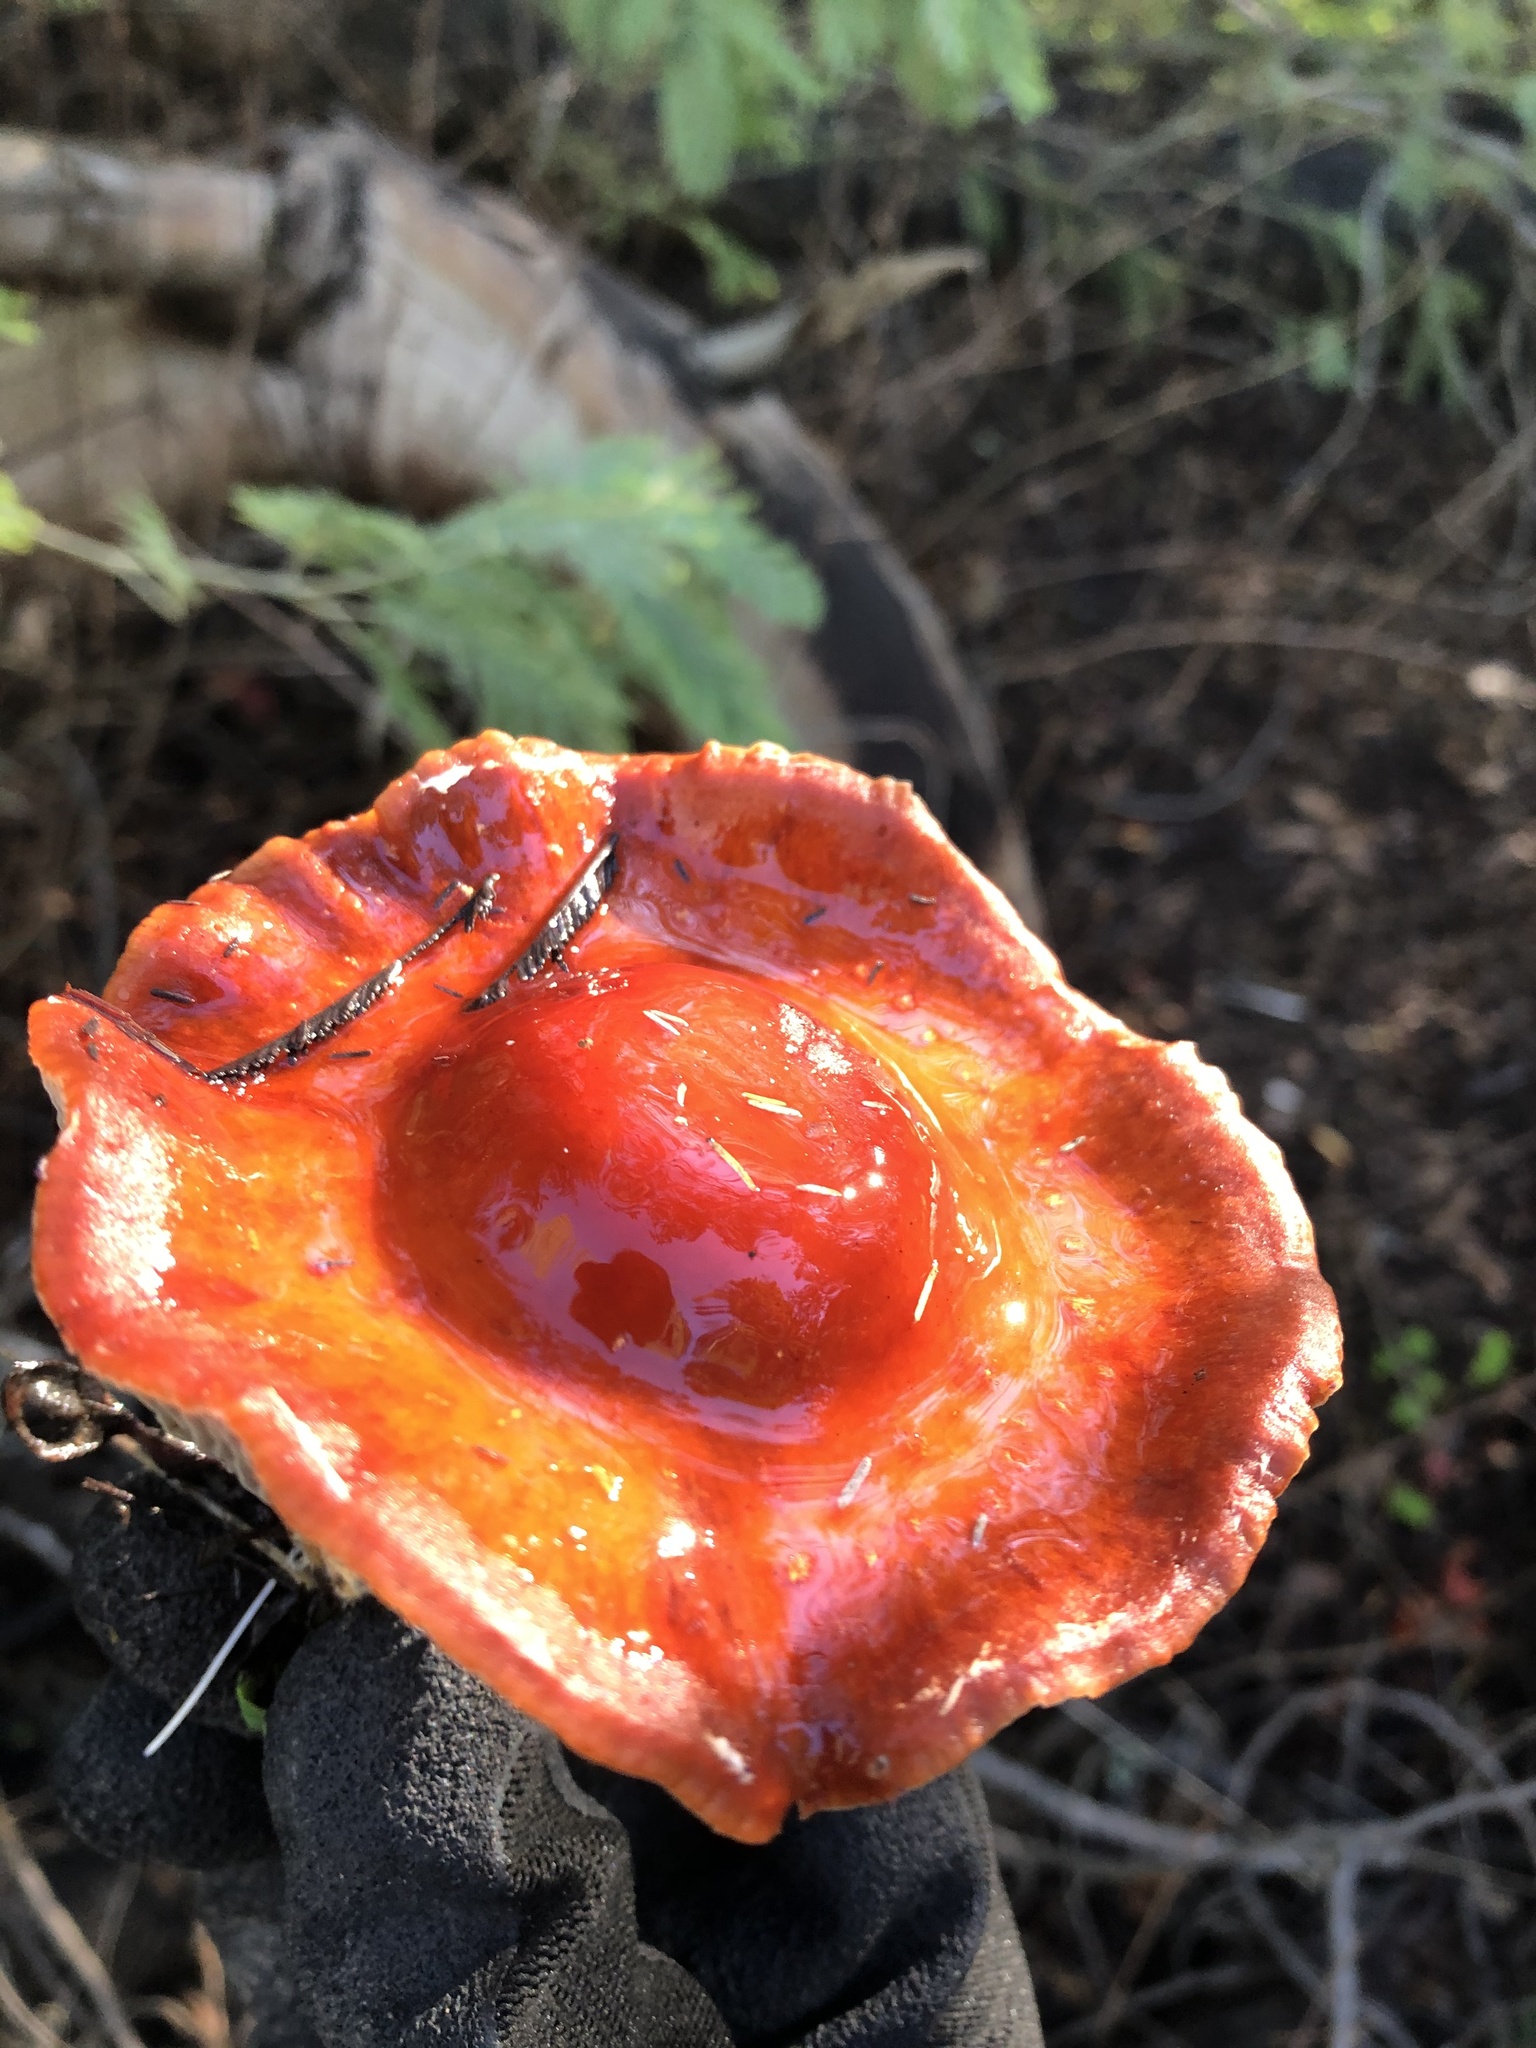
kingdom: Fungi
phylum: Basidiomycota
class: Agaricomycetes
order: Agaricales
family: Strophariaceae
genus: Leratiomyces
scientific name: Leratiomyces ceres
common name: Redlead roundhead
